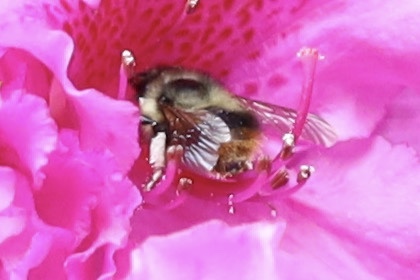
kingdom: Animalia
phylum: Arthropoda
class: Insecta
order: Hymenoptera
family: Apidae
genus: Bombus
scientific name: Bombus mixtus
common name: Fuzzy-horned bumble bee
